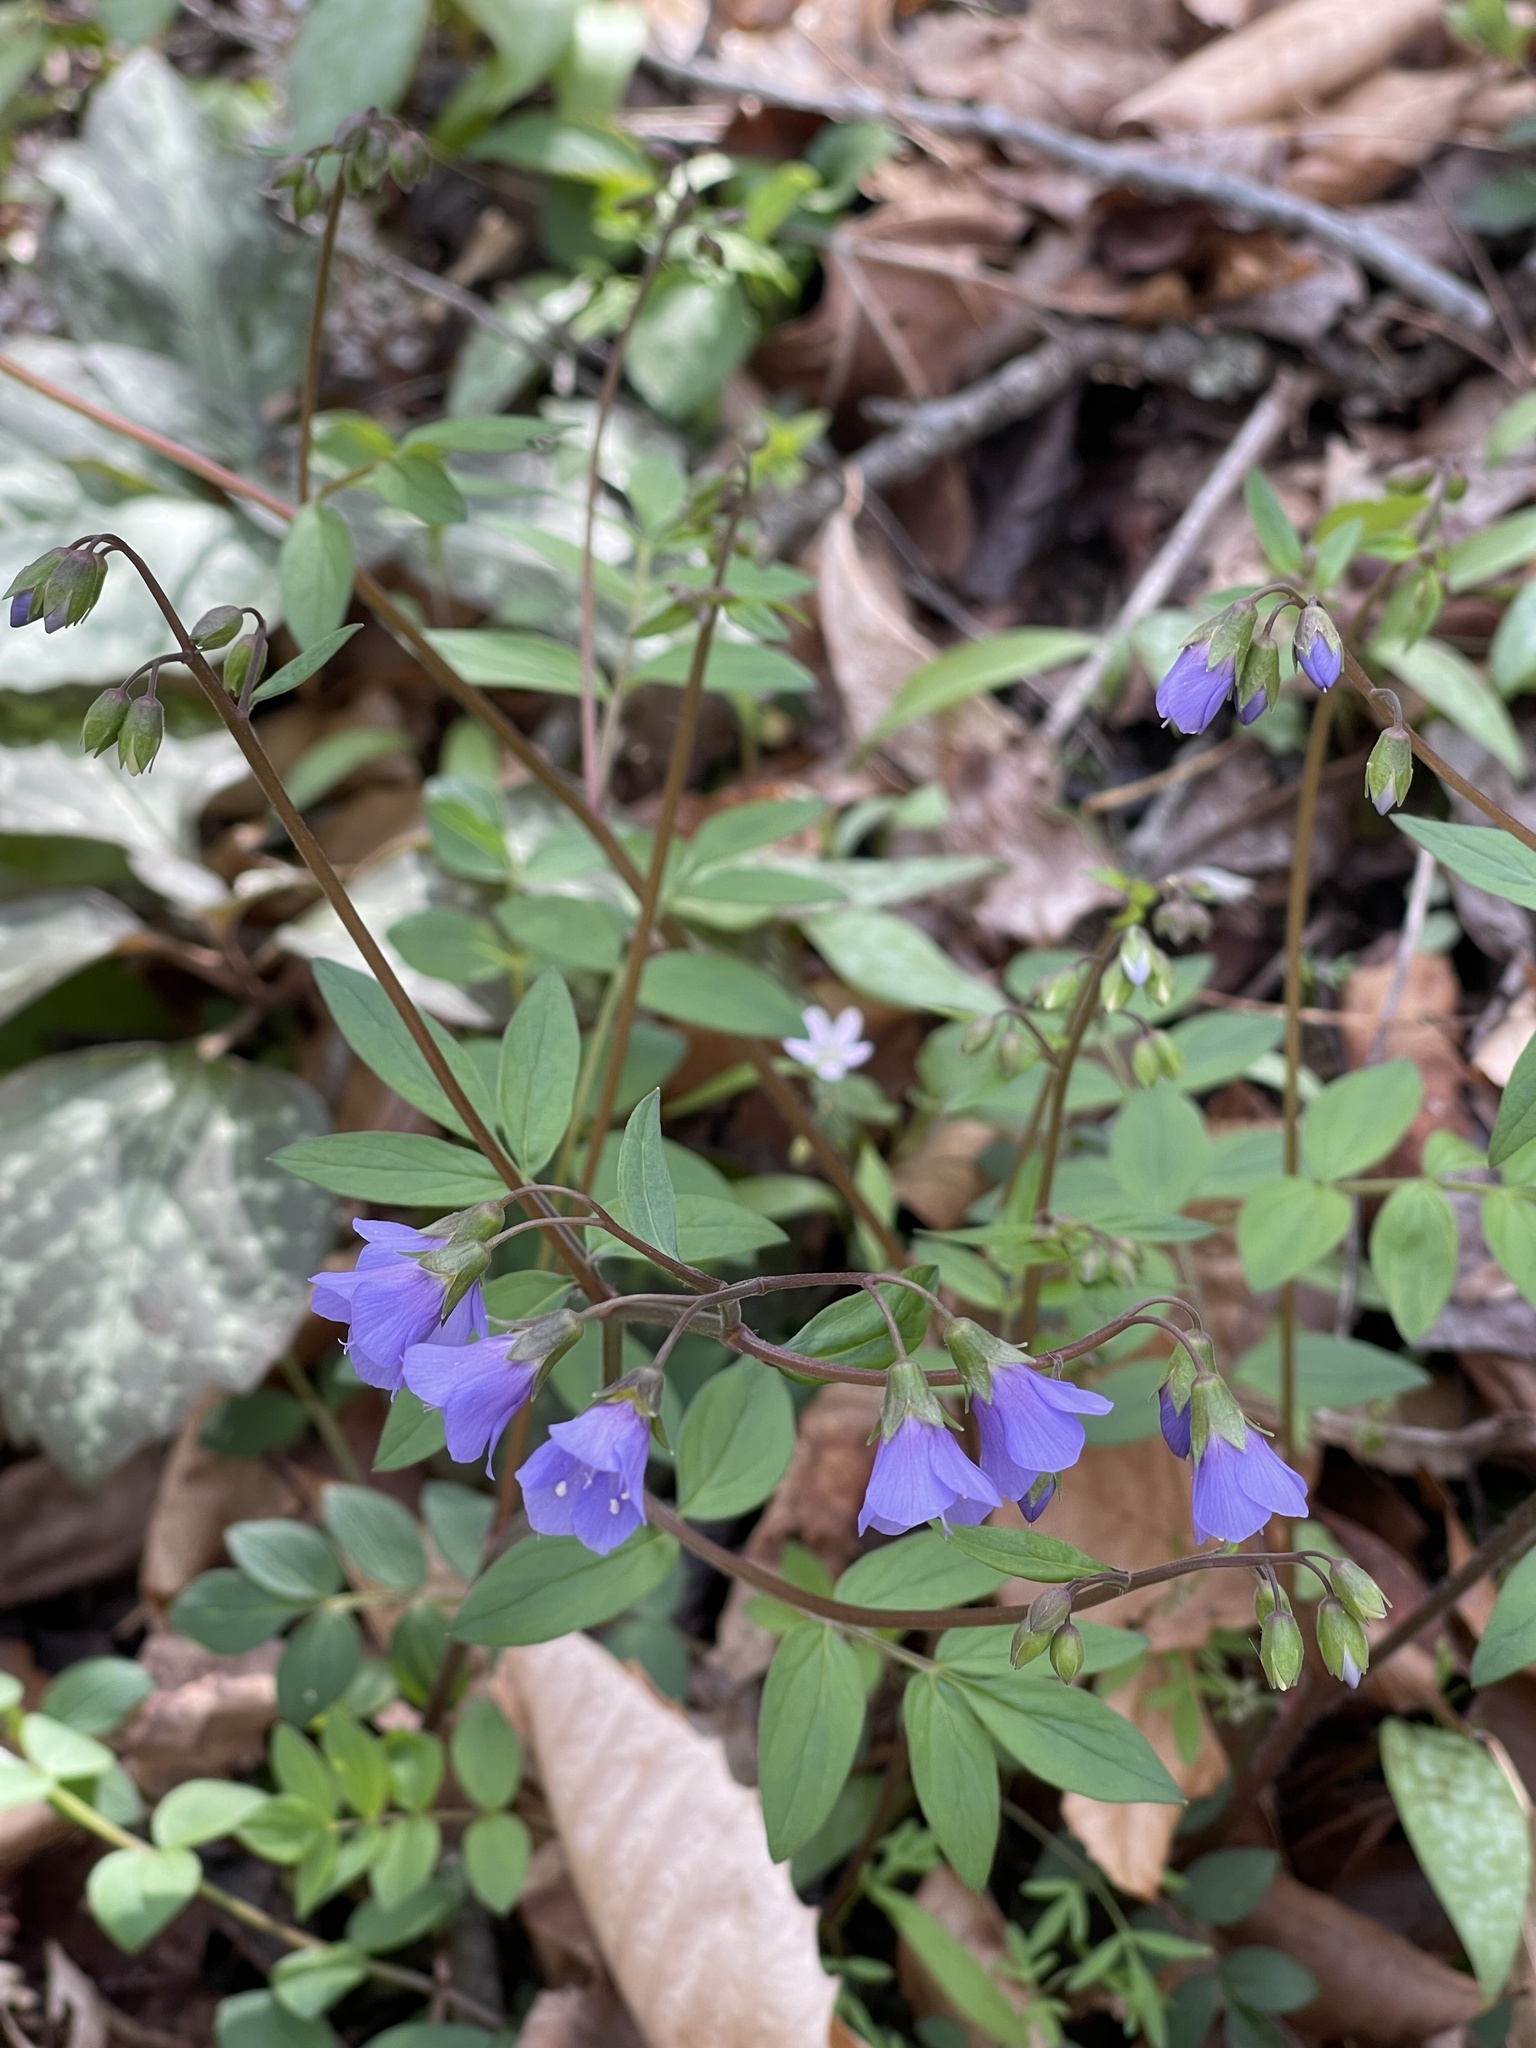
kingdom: Plantae
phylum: Tracheophyta
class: Magnoliopsida
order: Ericales
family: Polemoniaceae
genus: Polemonium
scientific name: Polemonium reptans
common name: Creeping jacob's-ladder
